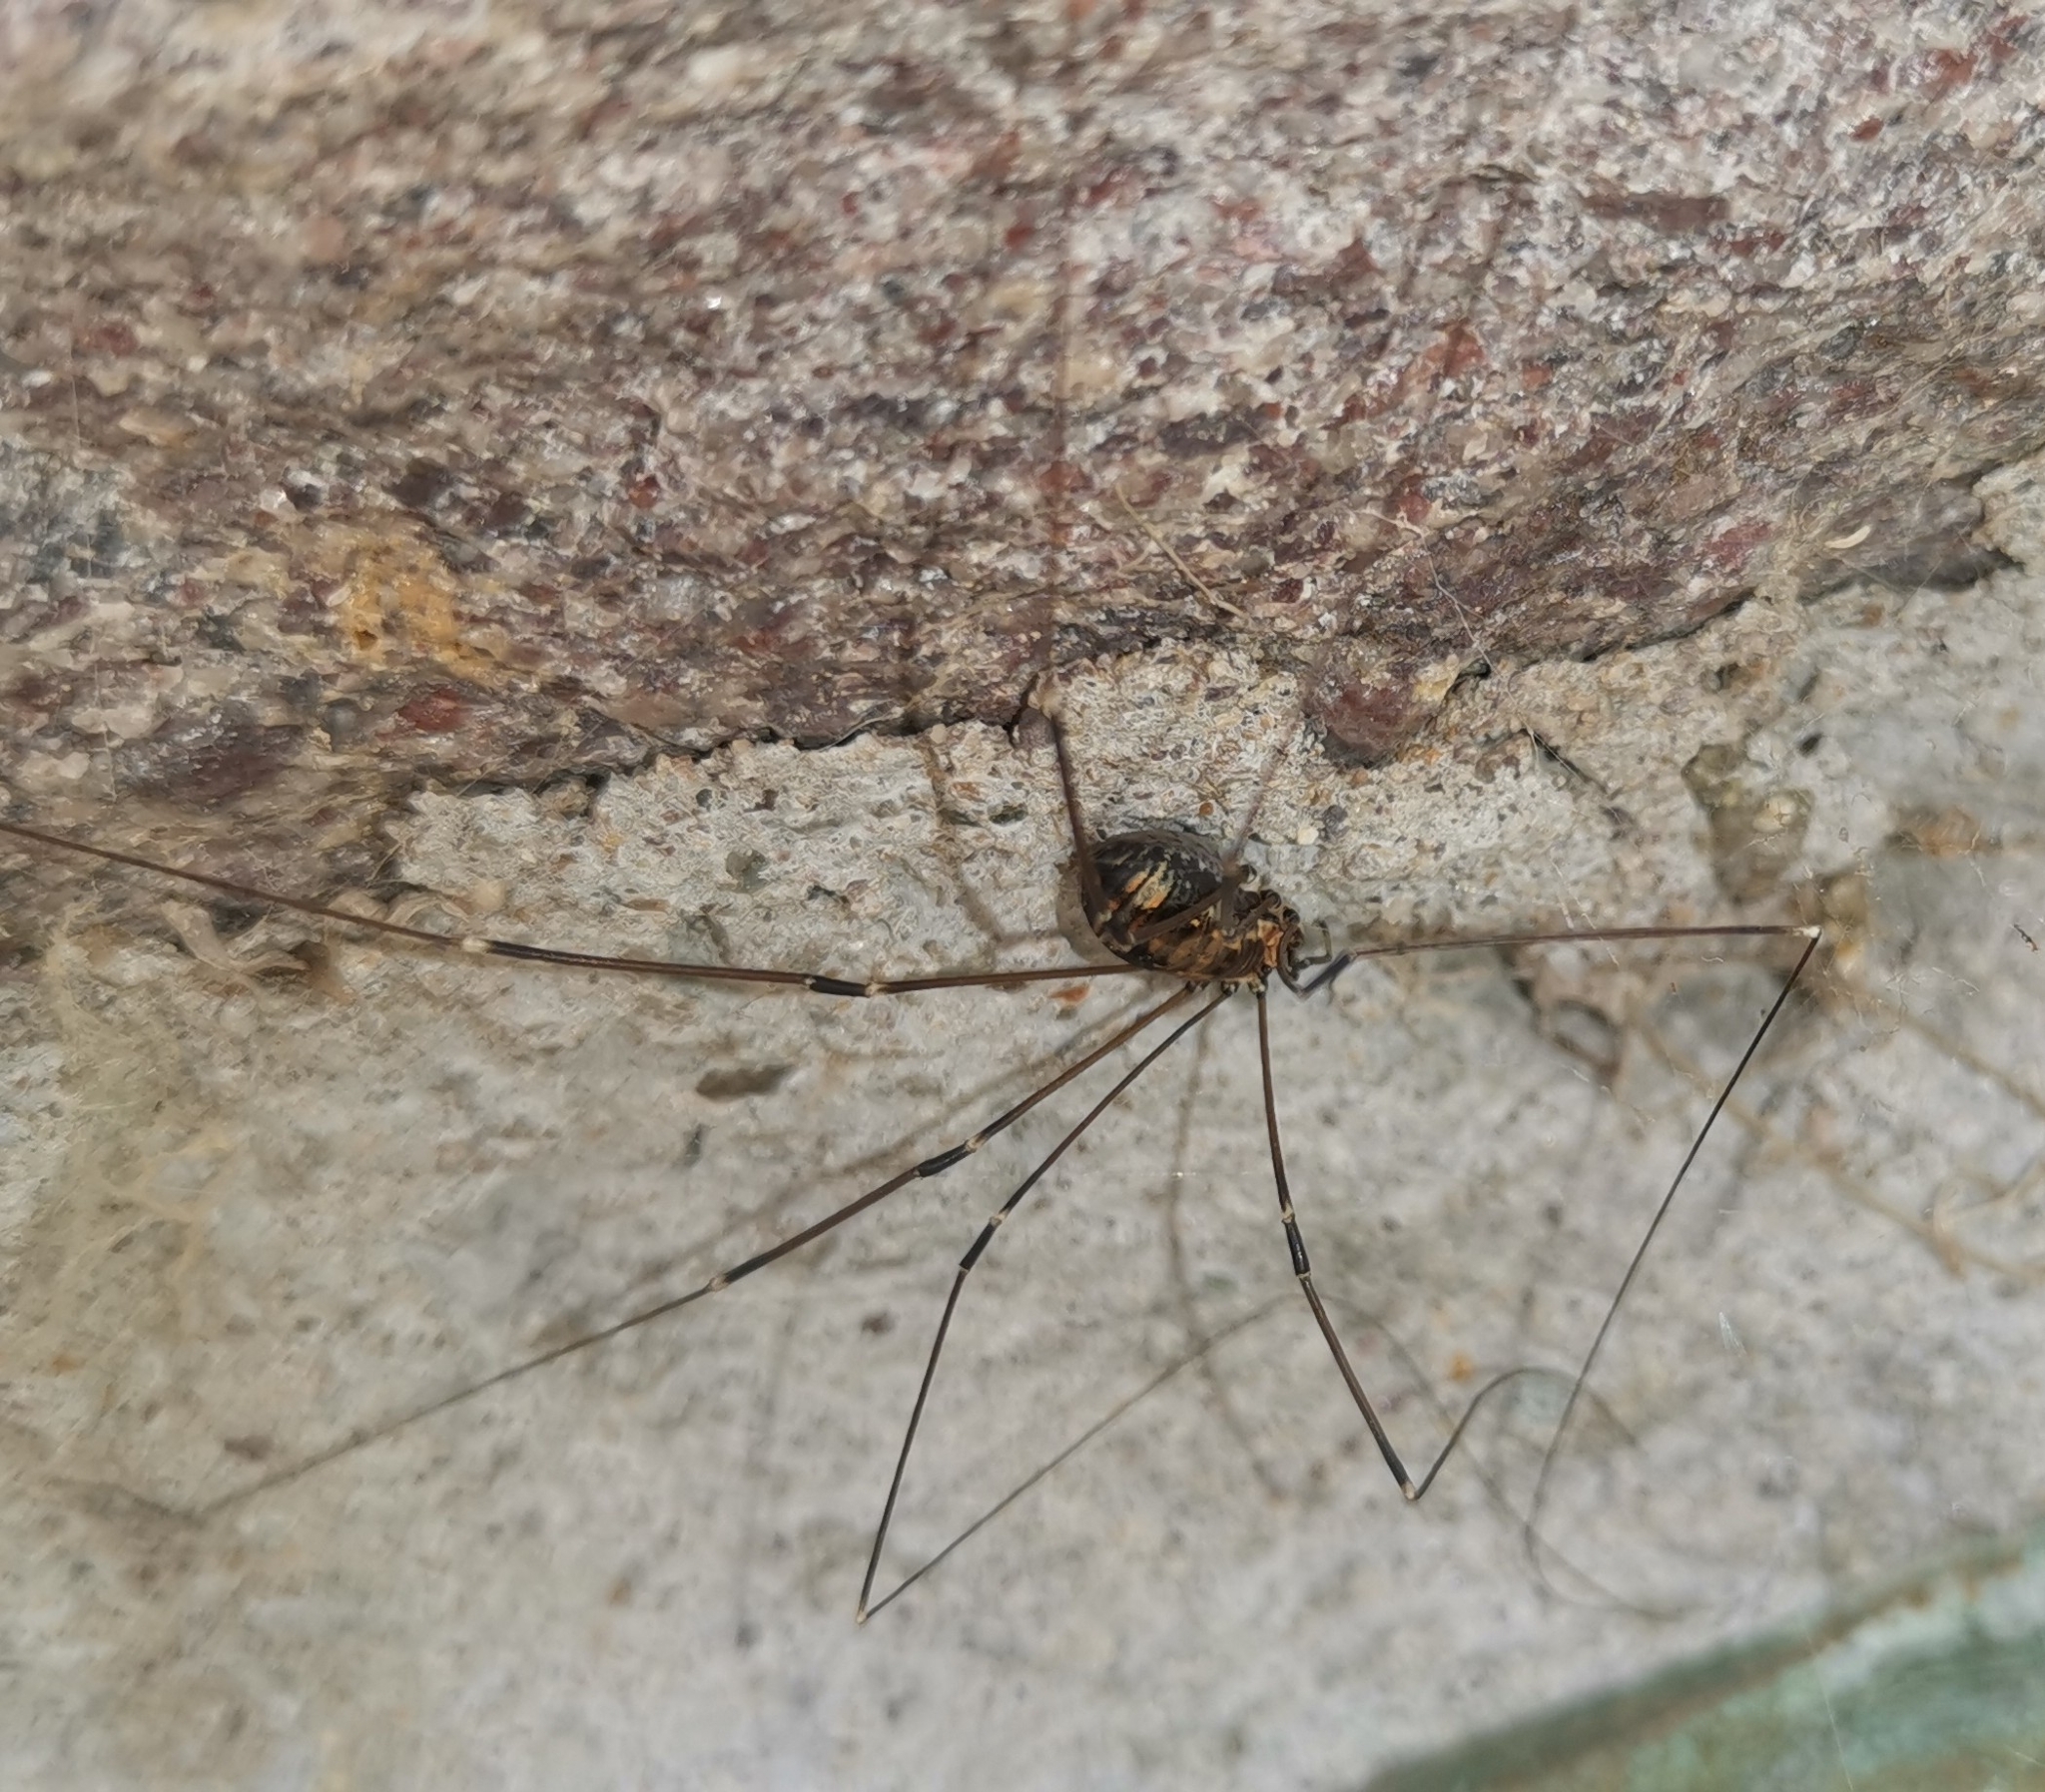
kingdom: Animalia
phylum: Arthropoda
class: Arachnida
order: Opiliones
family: Sclerosomatidae
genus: Leiobunum
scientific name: Leiobunum limbatum
